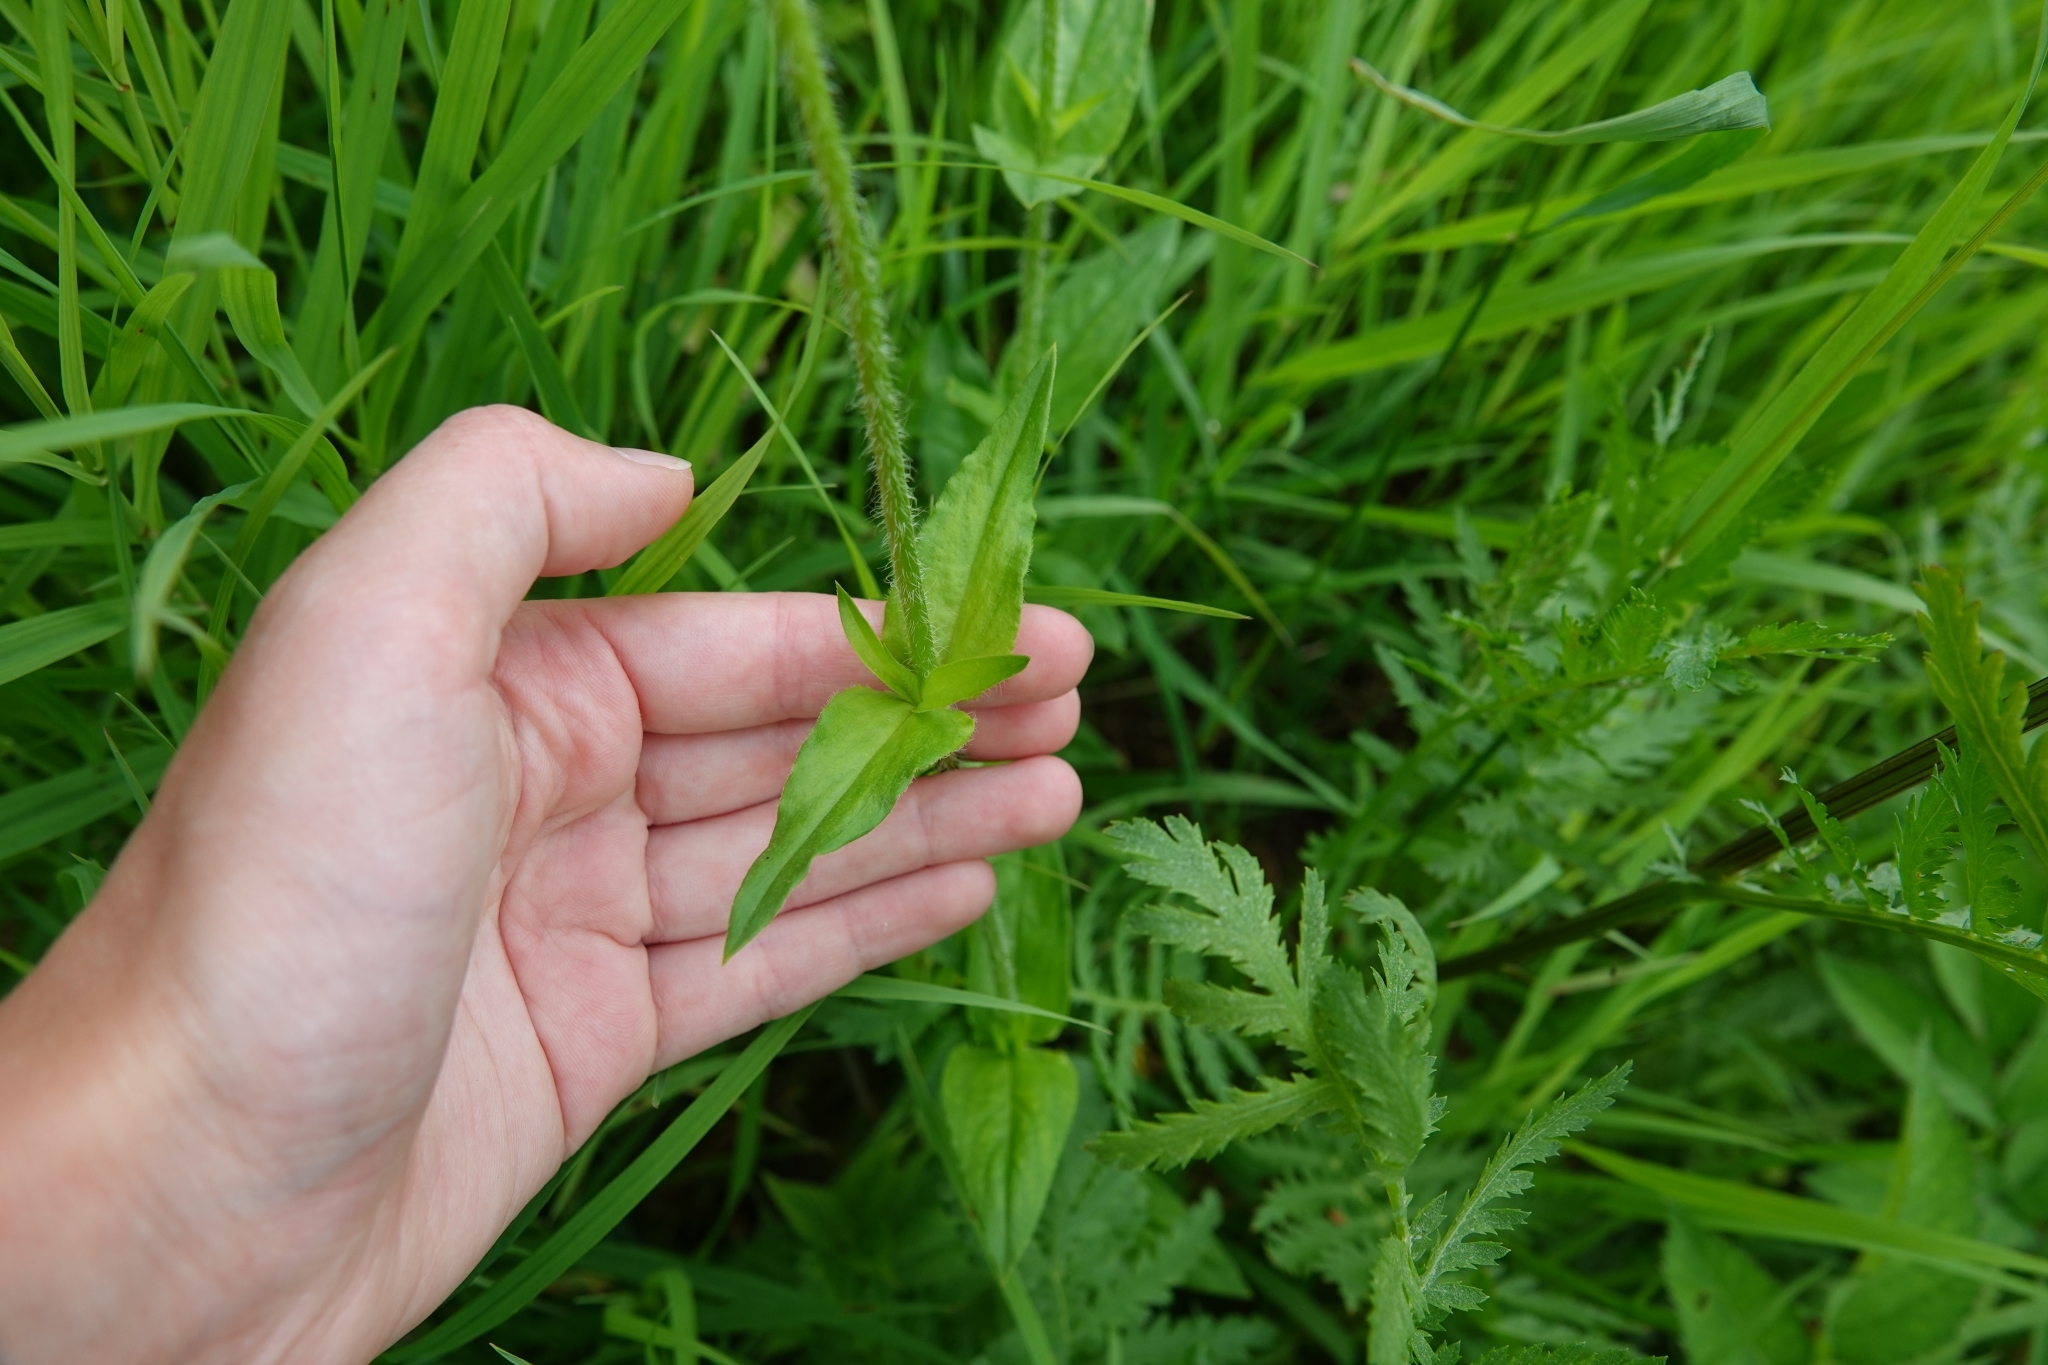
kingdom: Plantae
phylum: Tracheophyta
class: Magnoliopsida
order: Caryophyllales
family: Caryophyllaceae
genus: Silene
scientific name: Silene chalcedonica
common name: Maltese-cross
